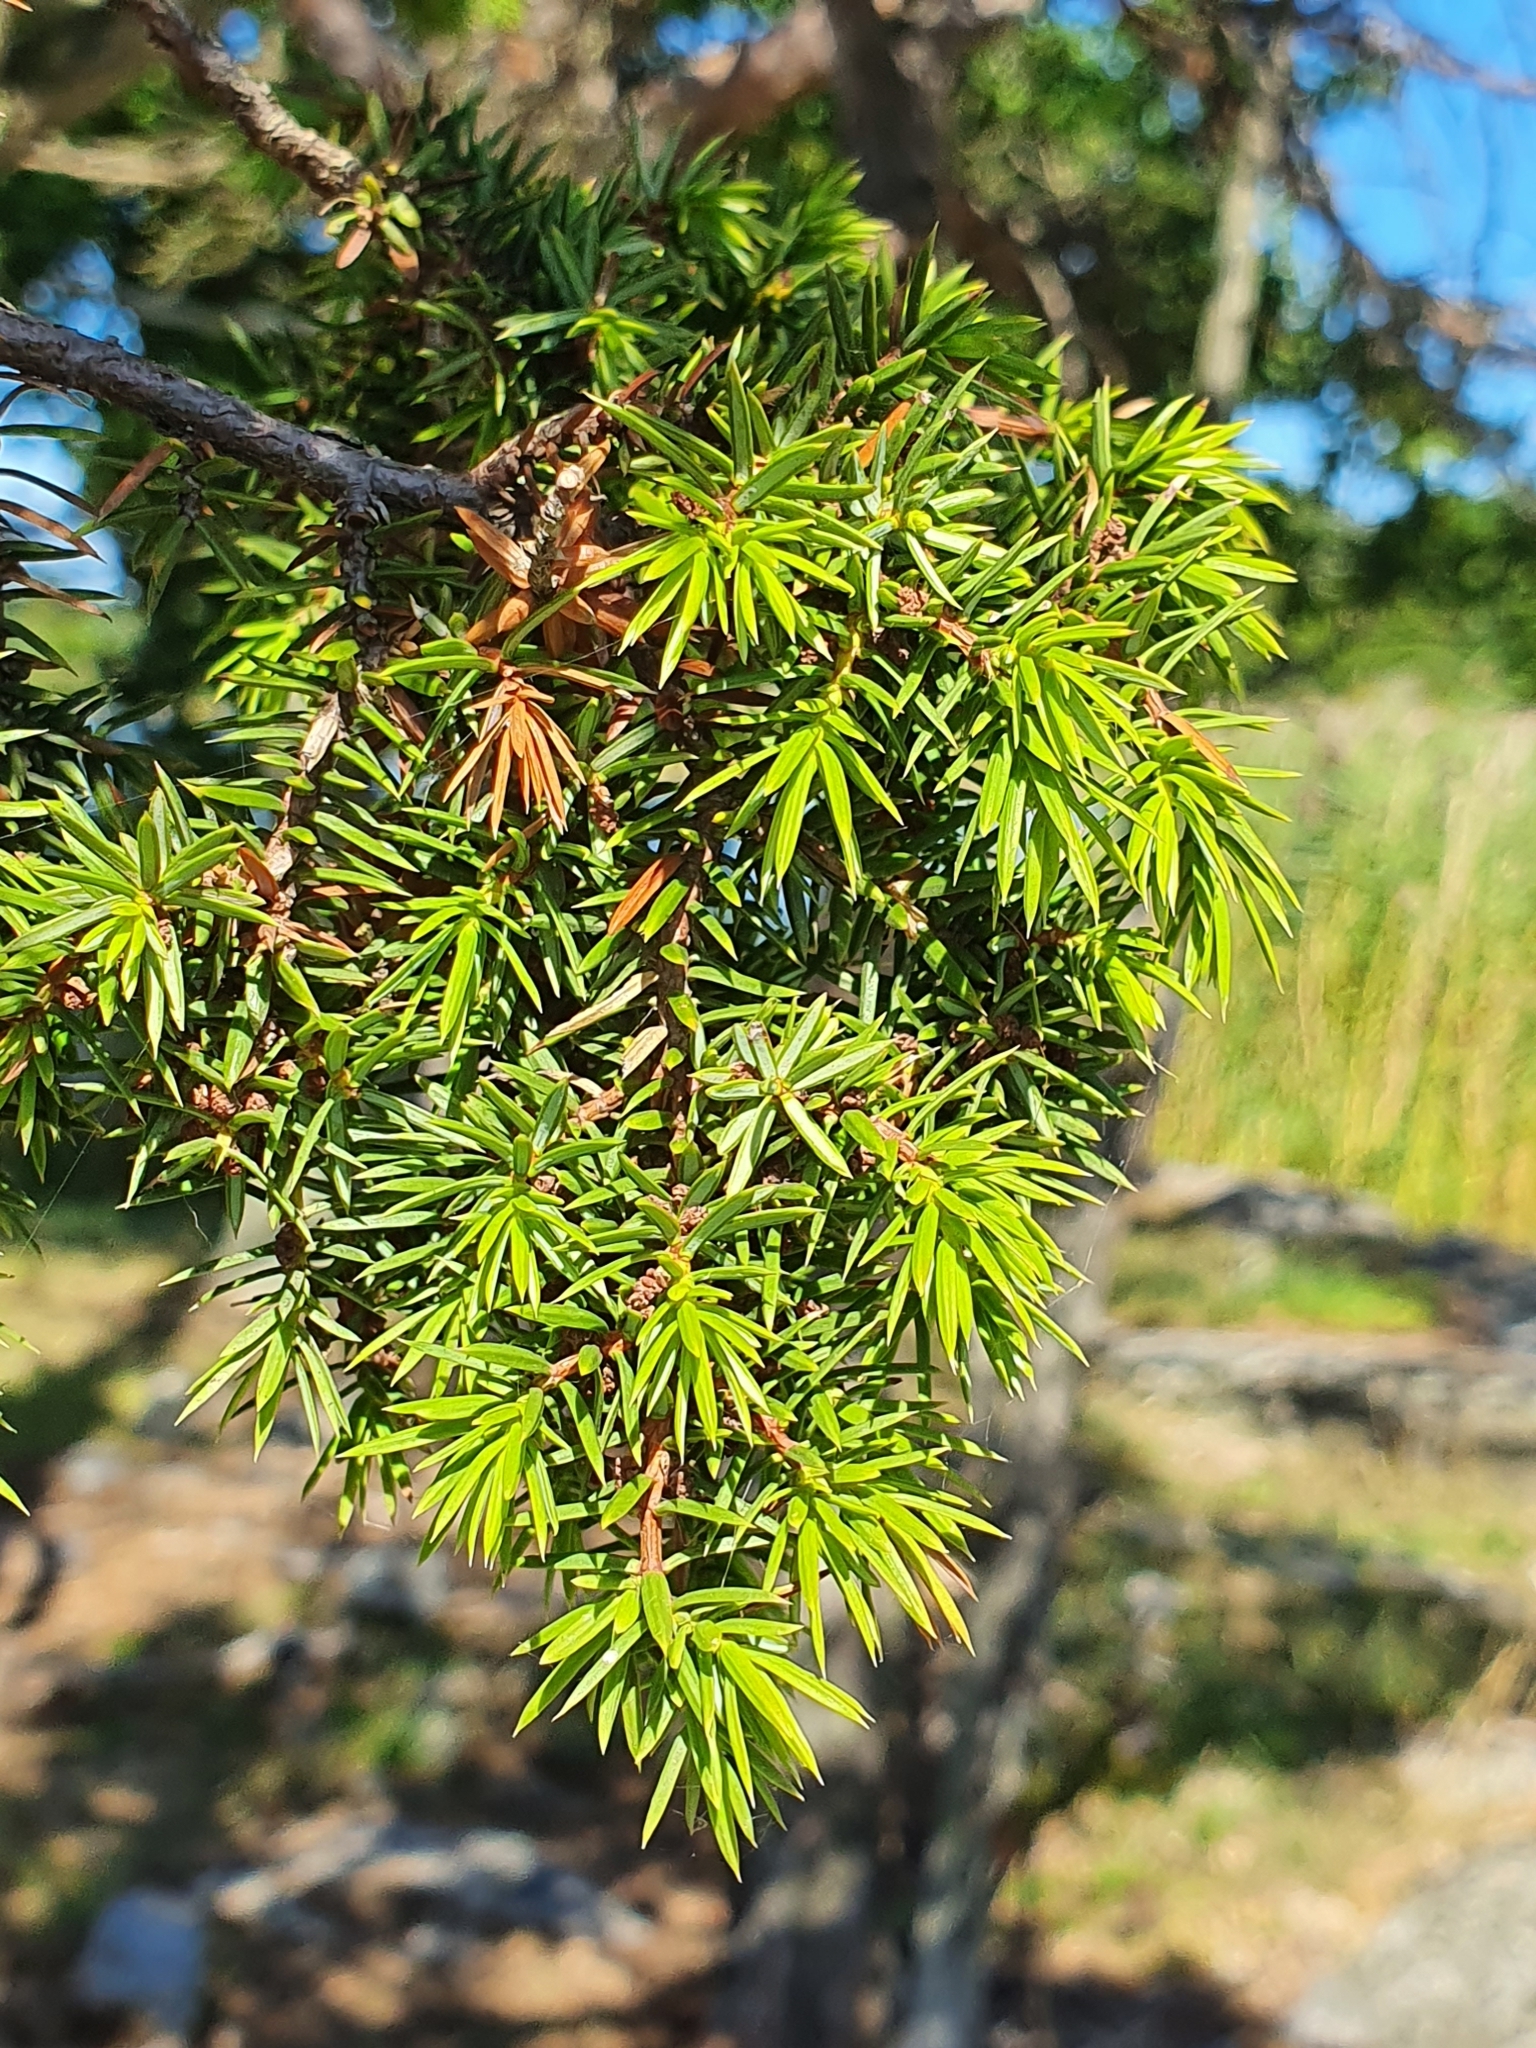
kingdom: Plantae
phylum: Tracheophyta
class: Pinopsida
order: Pinales
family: Cupressaceae
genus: Juniperus
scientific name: Juniperus communis
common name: Common juniper
